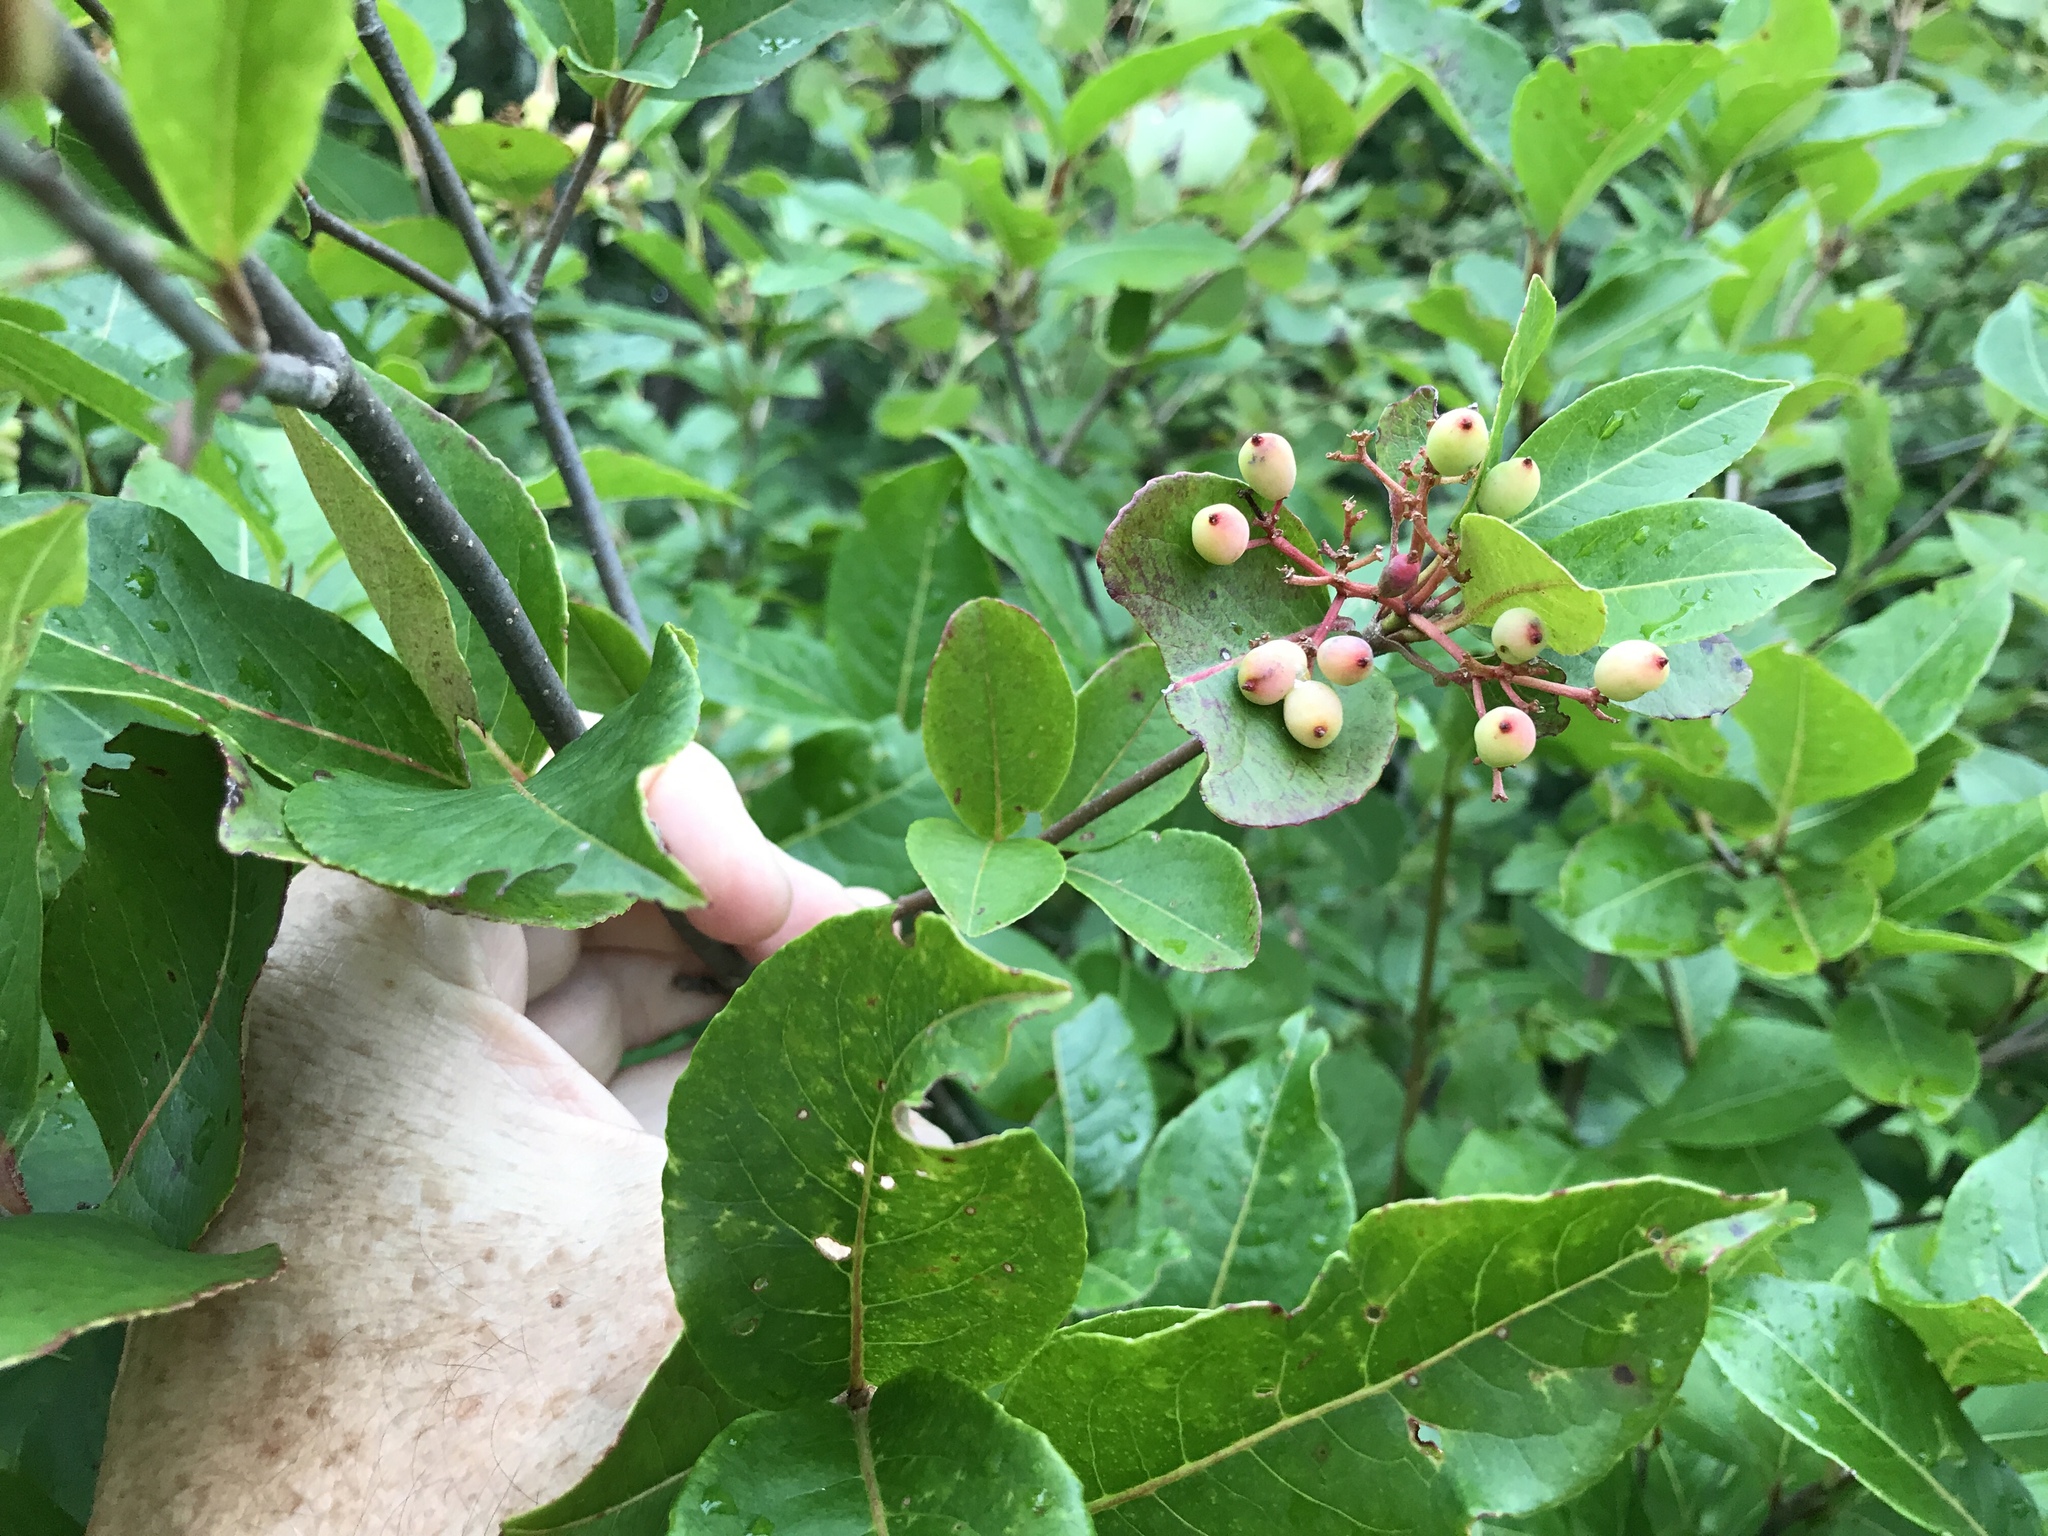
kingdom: Plantae
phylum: Tracheophyta
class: Magnoliopsida
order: Dipsacales
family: Viburnaceae
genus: Viburnum
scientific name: Viburnum cassinoides
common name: Swamp haw
